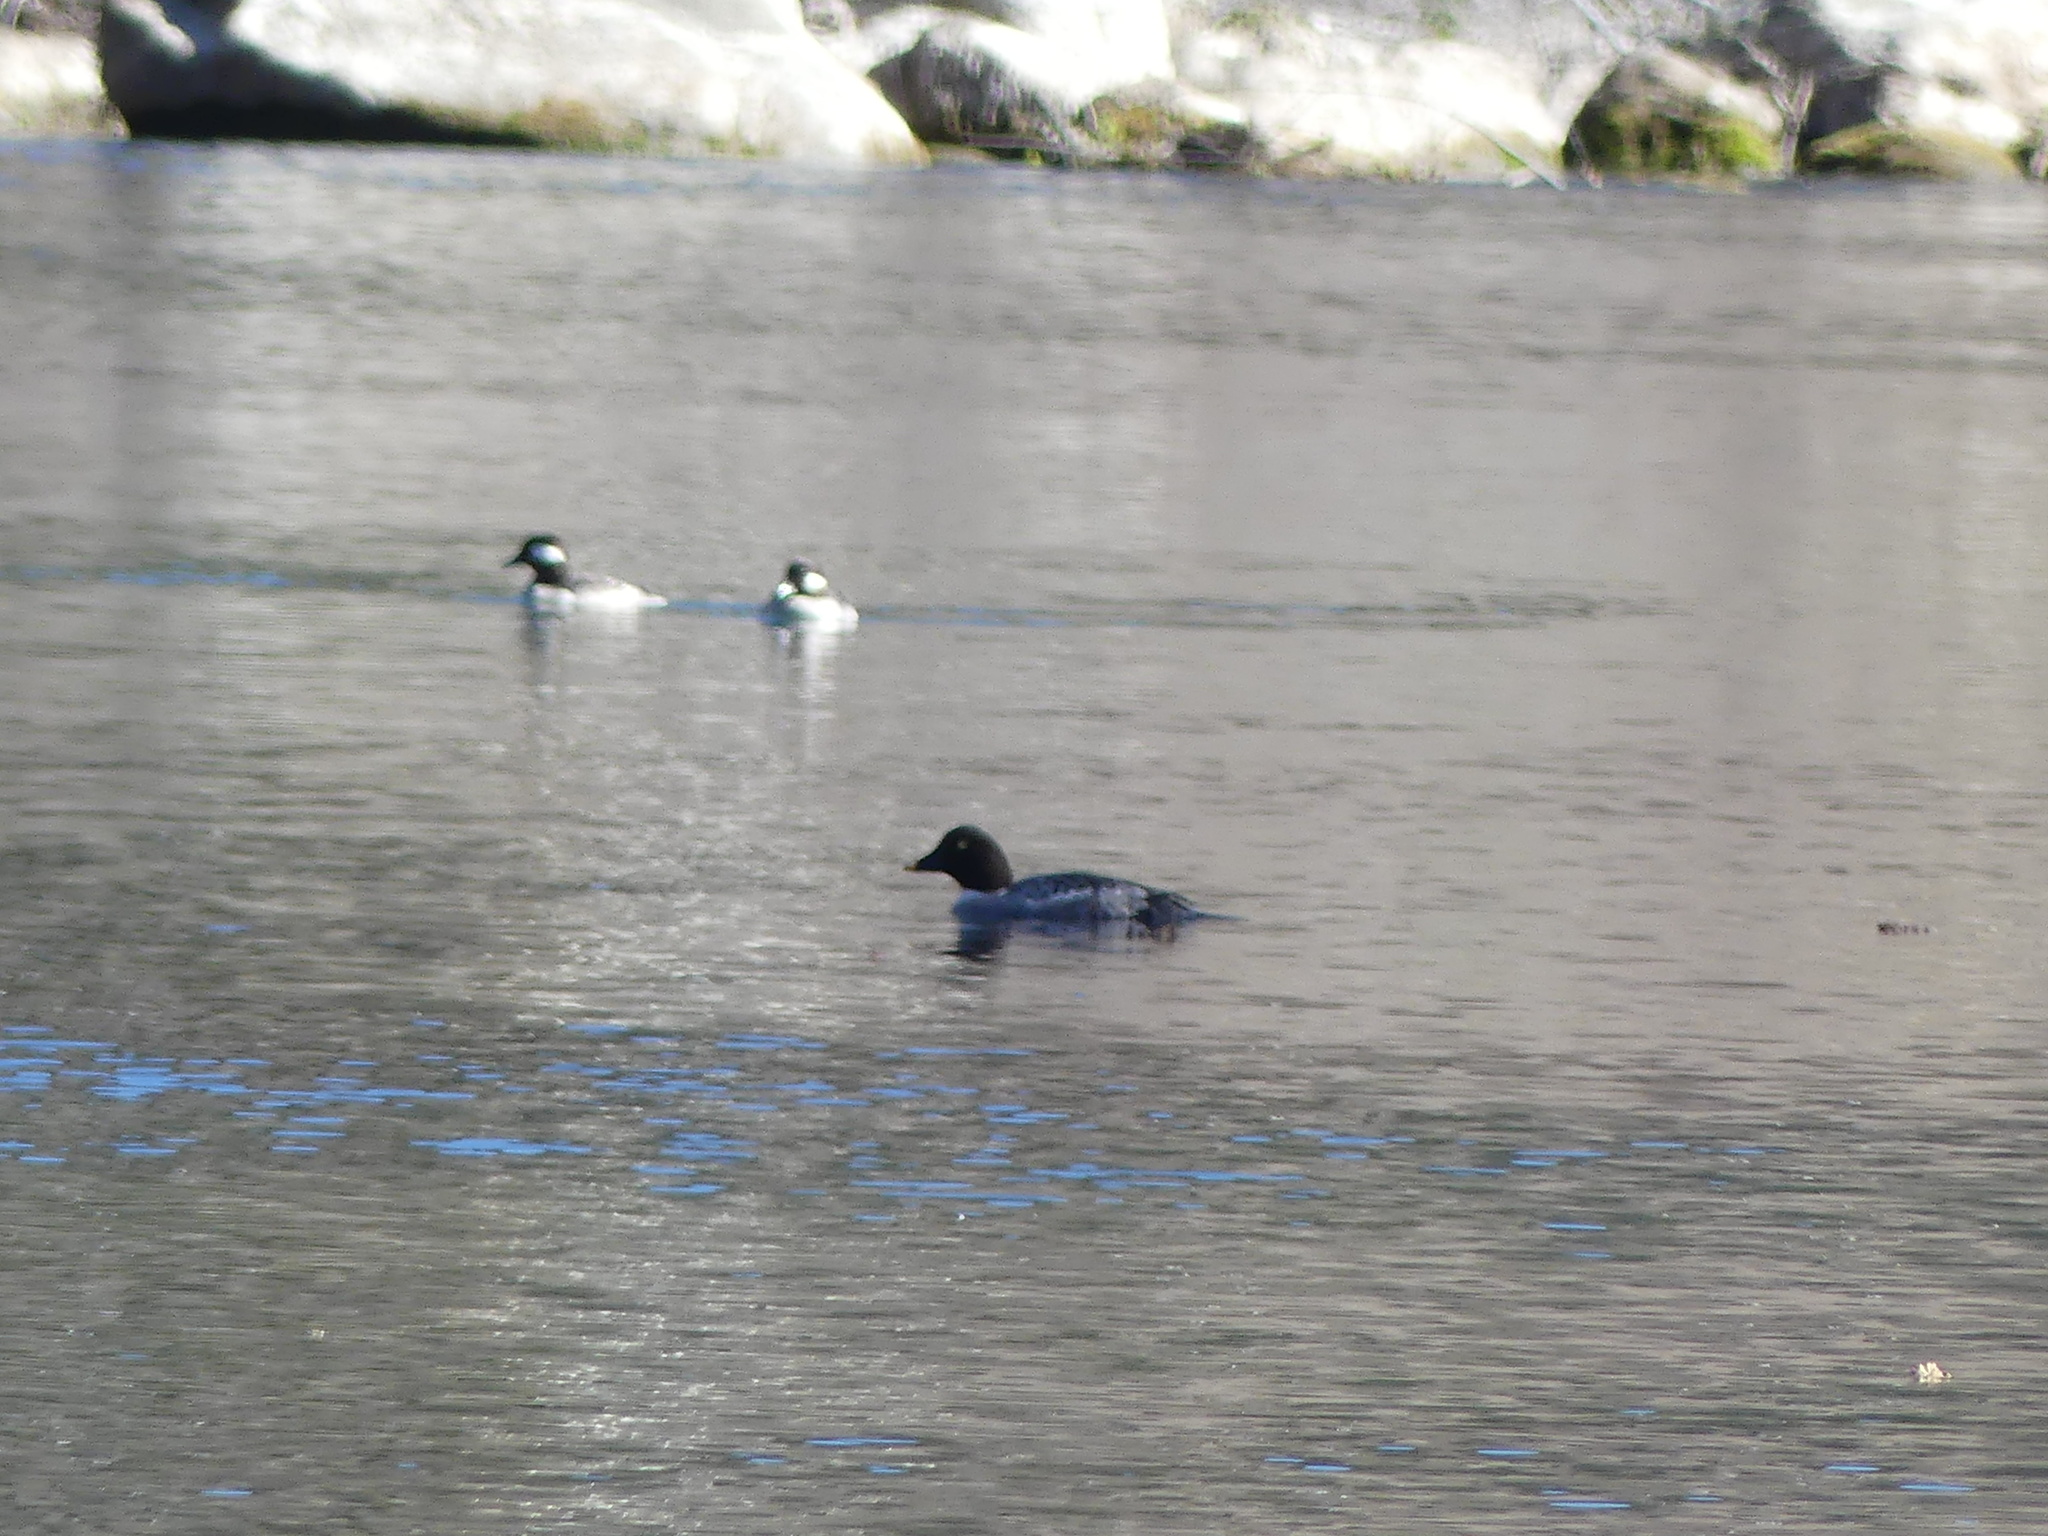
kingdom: Animalia
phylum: Chordata
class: Aves
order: Anseriformes
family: Anatidae
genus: Bucephala
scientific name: Bucephala clangula
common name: Common goldeneye
